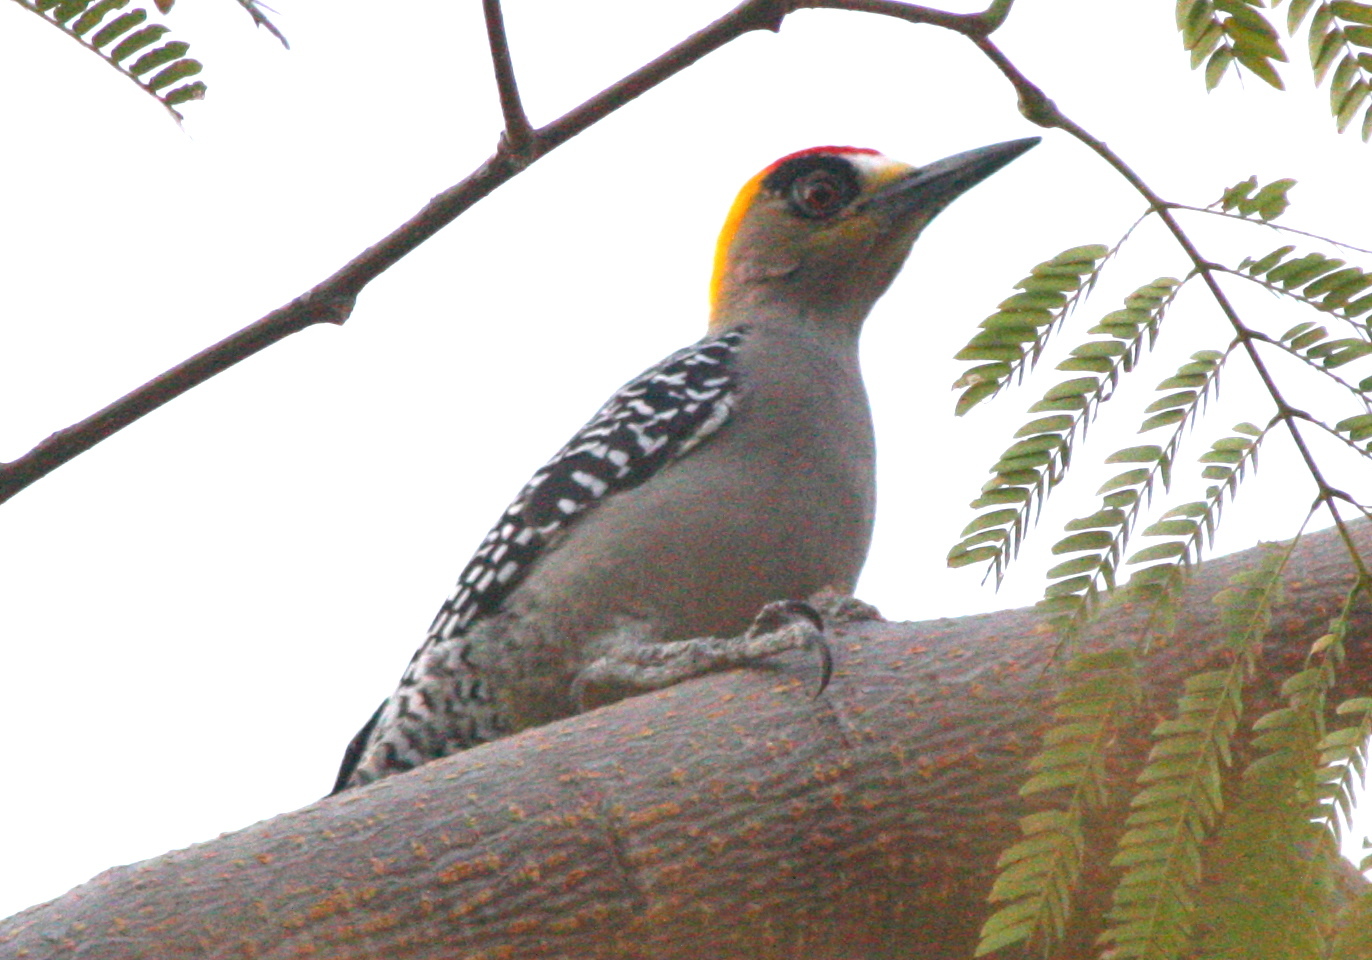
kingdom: Animalia
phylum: Chordata
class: Aves
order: Piciformes
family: Picidae
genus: Melanerpes
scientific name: Melanerpes chrysogenys
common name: Golden-cheeked woodpecker
